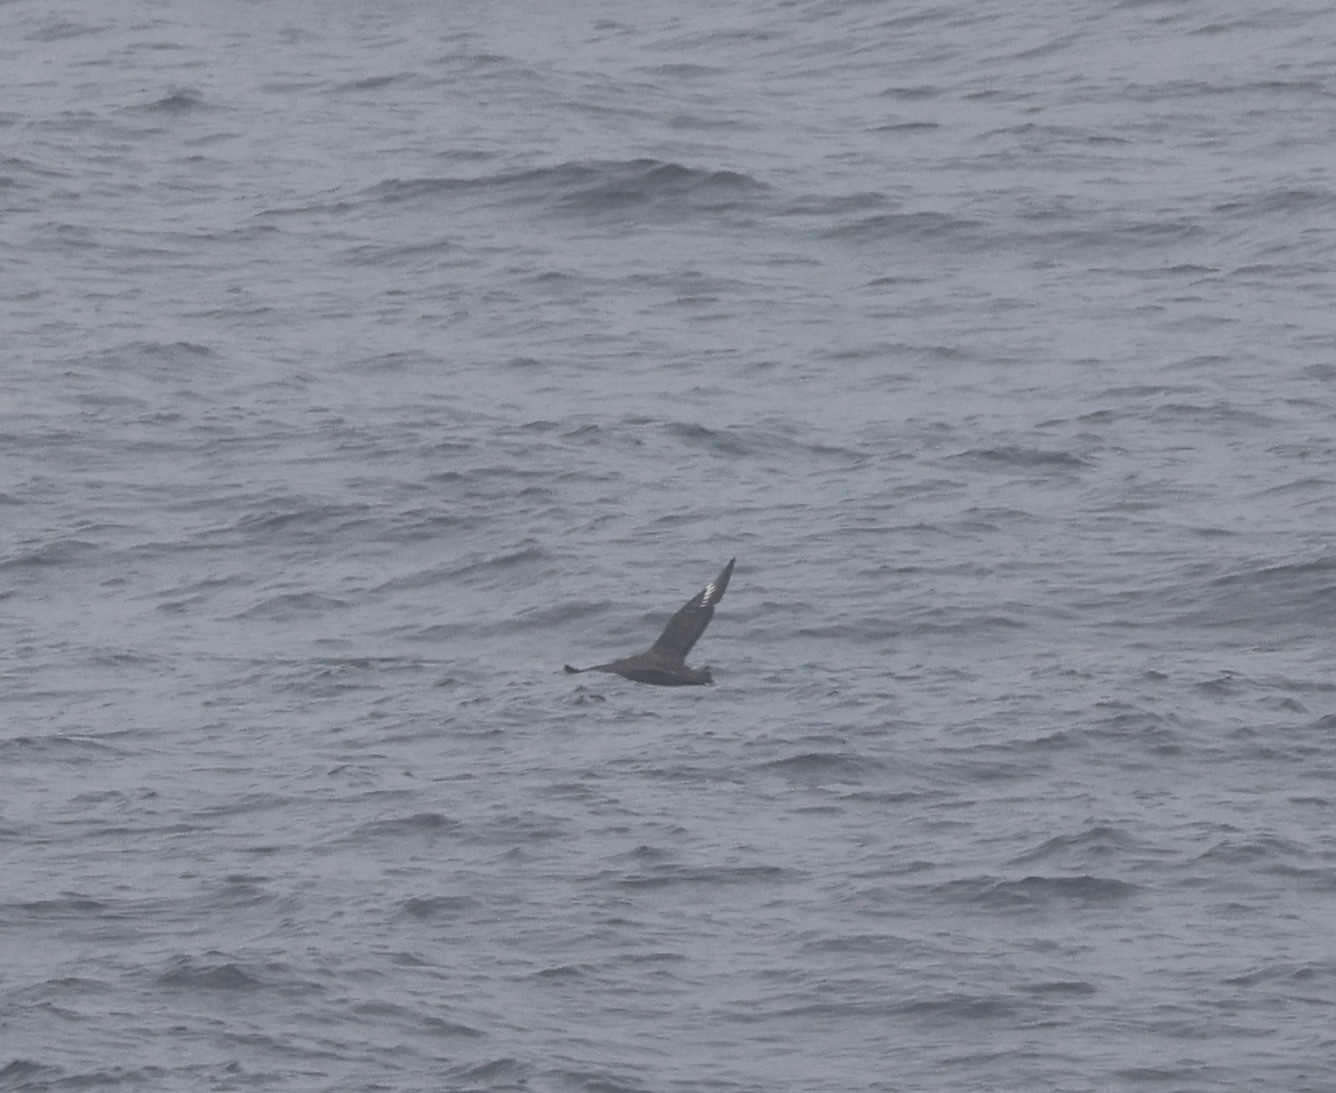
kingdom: Animalia
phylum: Chordata
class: Aves
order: Charadriiformes
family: Stercorariidae
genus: Stercorarius
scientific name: Stercorarius skua
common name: Great skua
